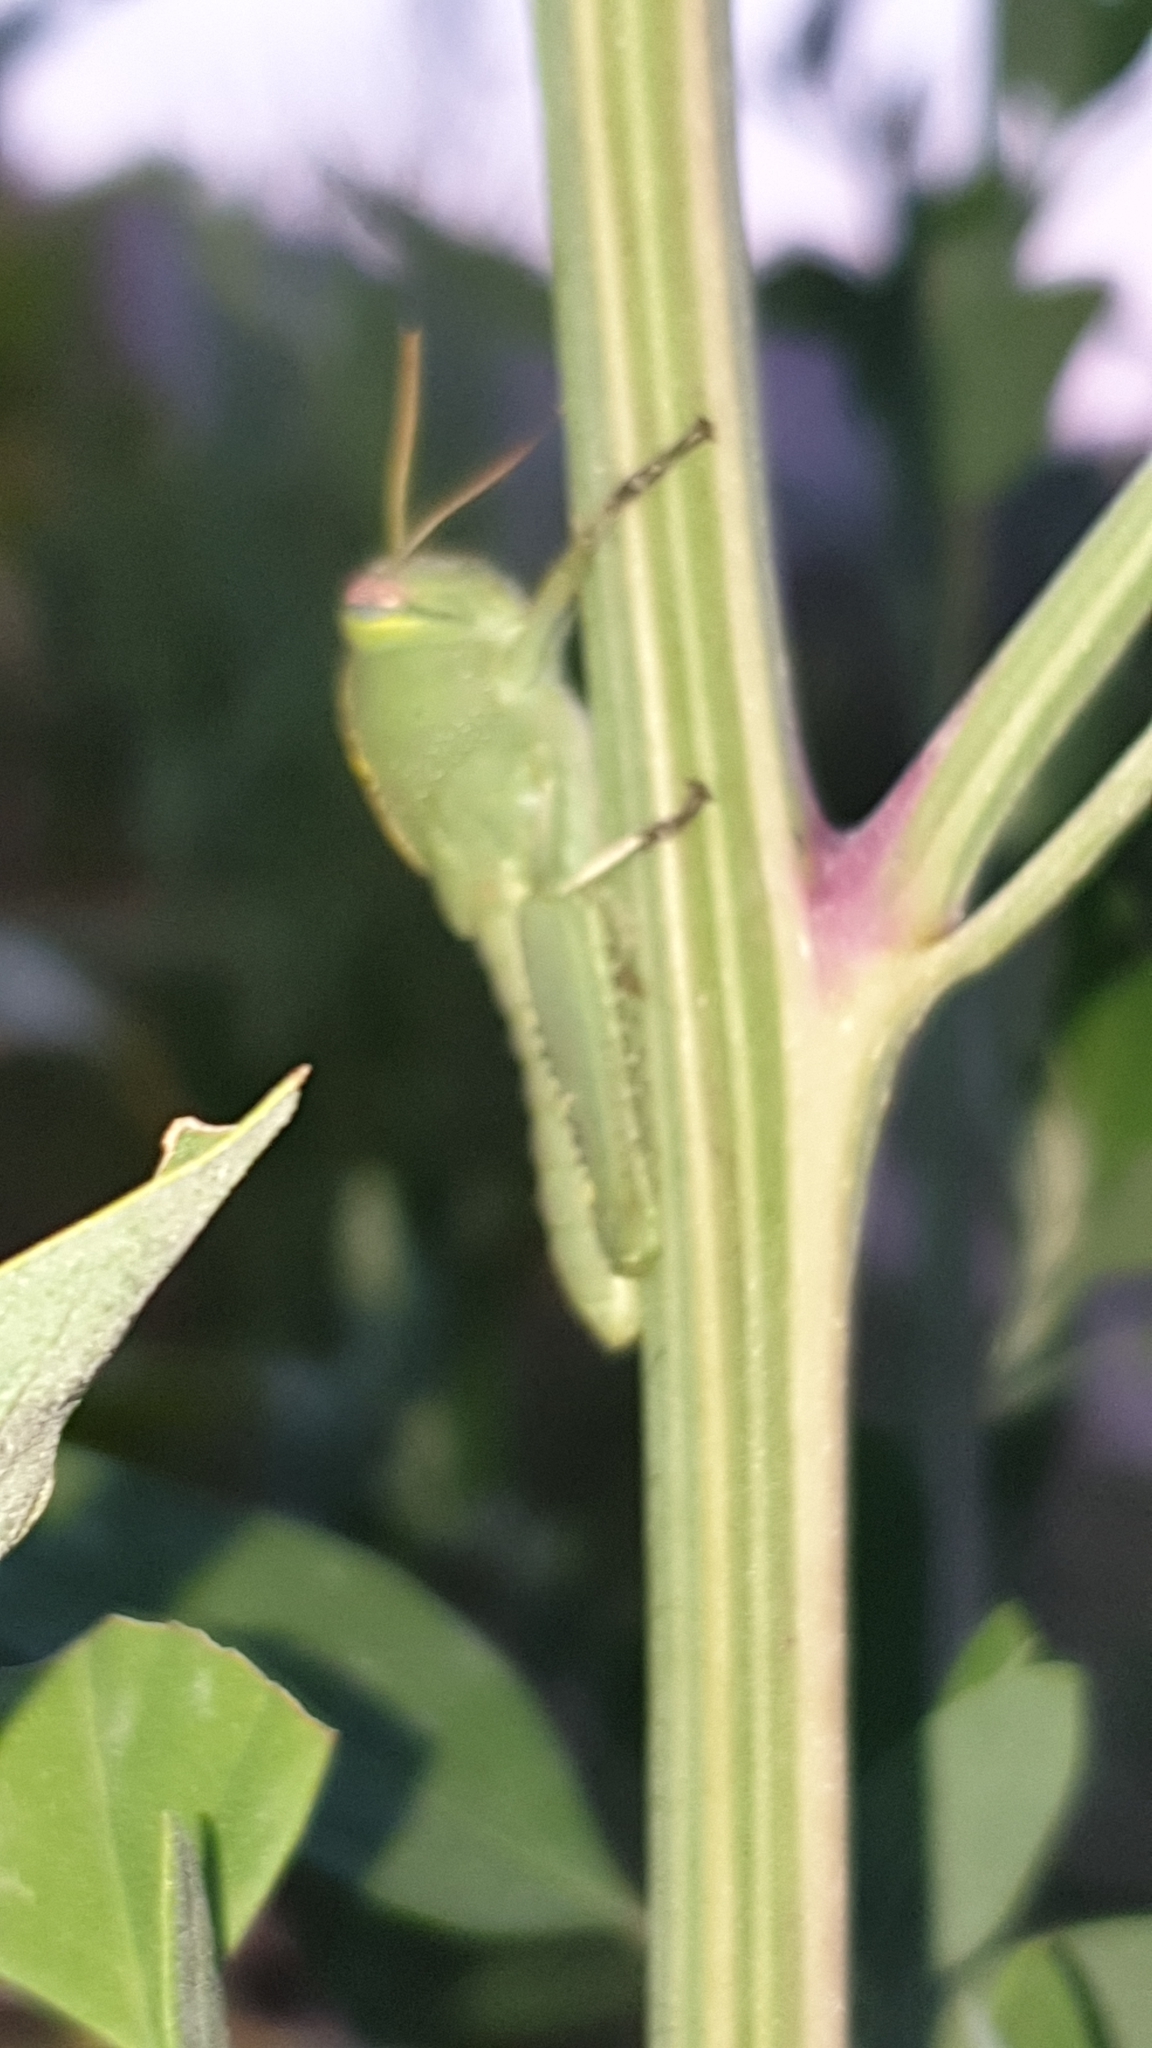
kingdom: Animalia
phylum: Arthropoda
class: Insecta
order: Orthoptera
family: Acrididae
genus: Anacridium
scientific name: Anacridium aegyptium
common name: Egyptian grasshopper
